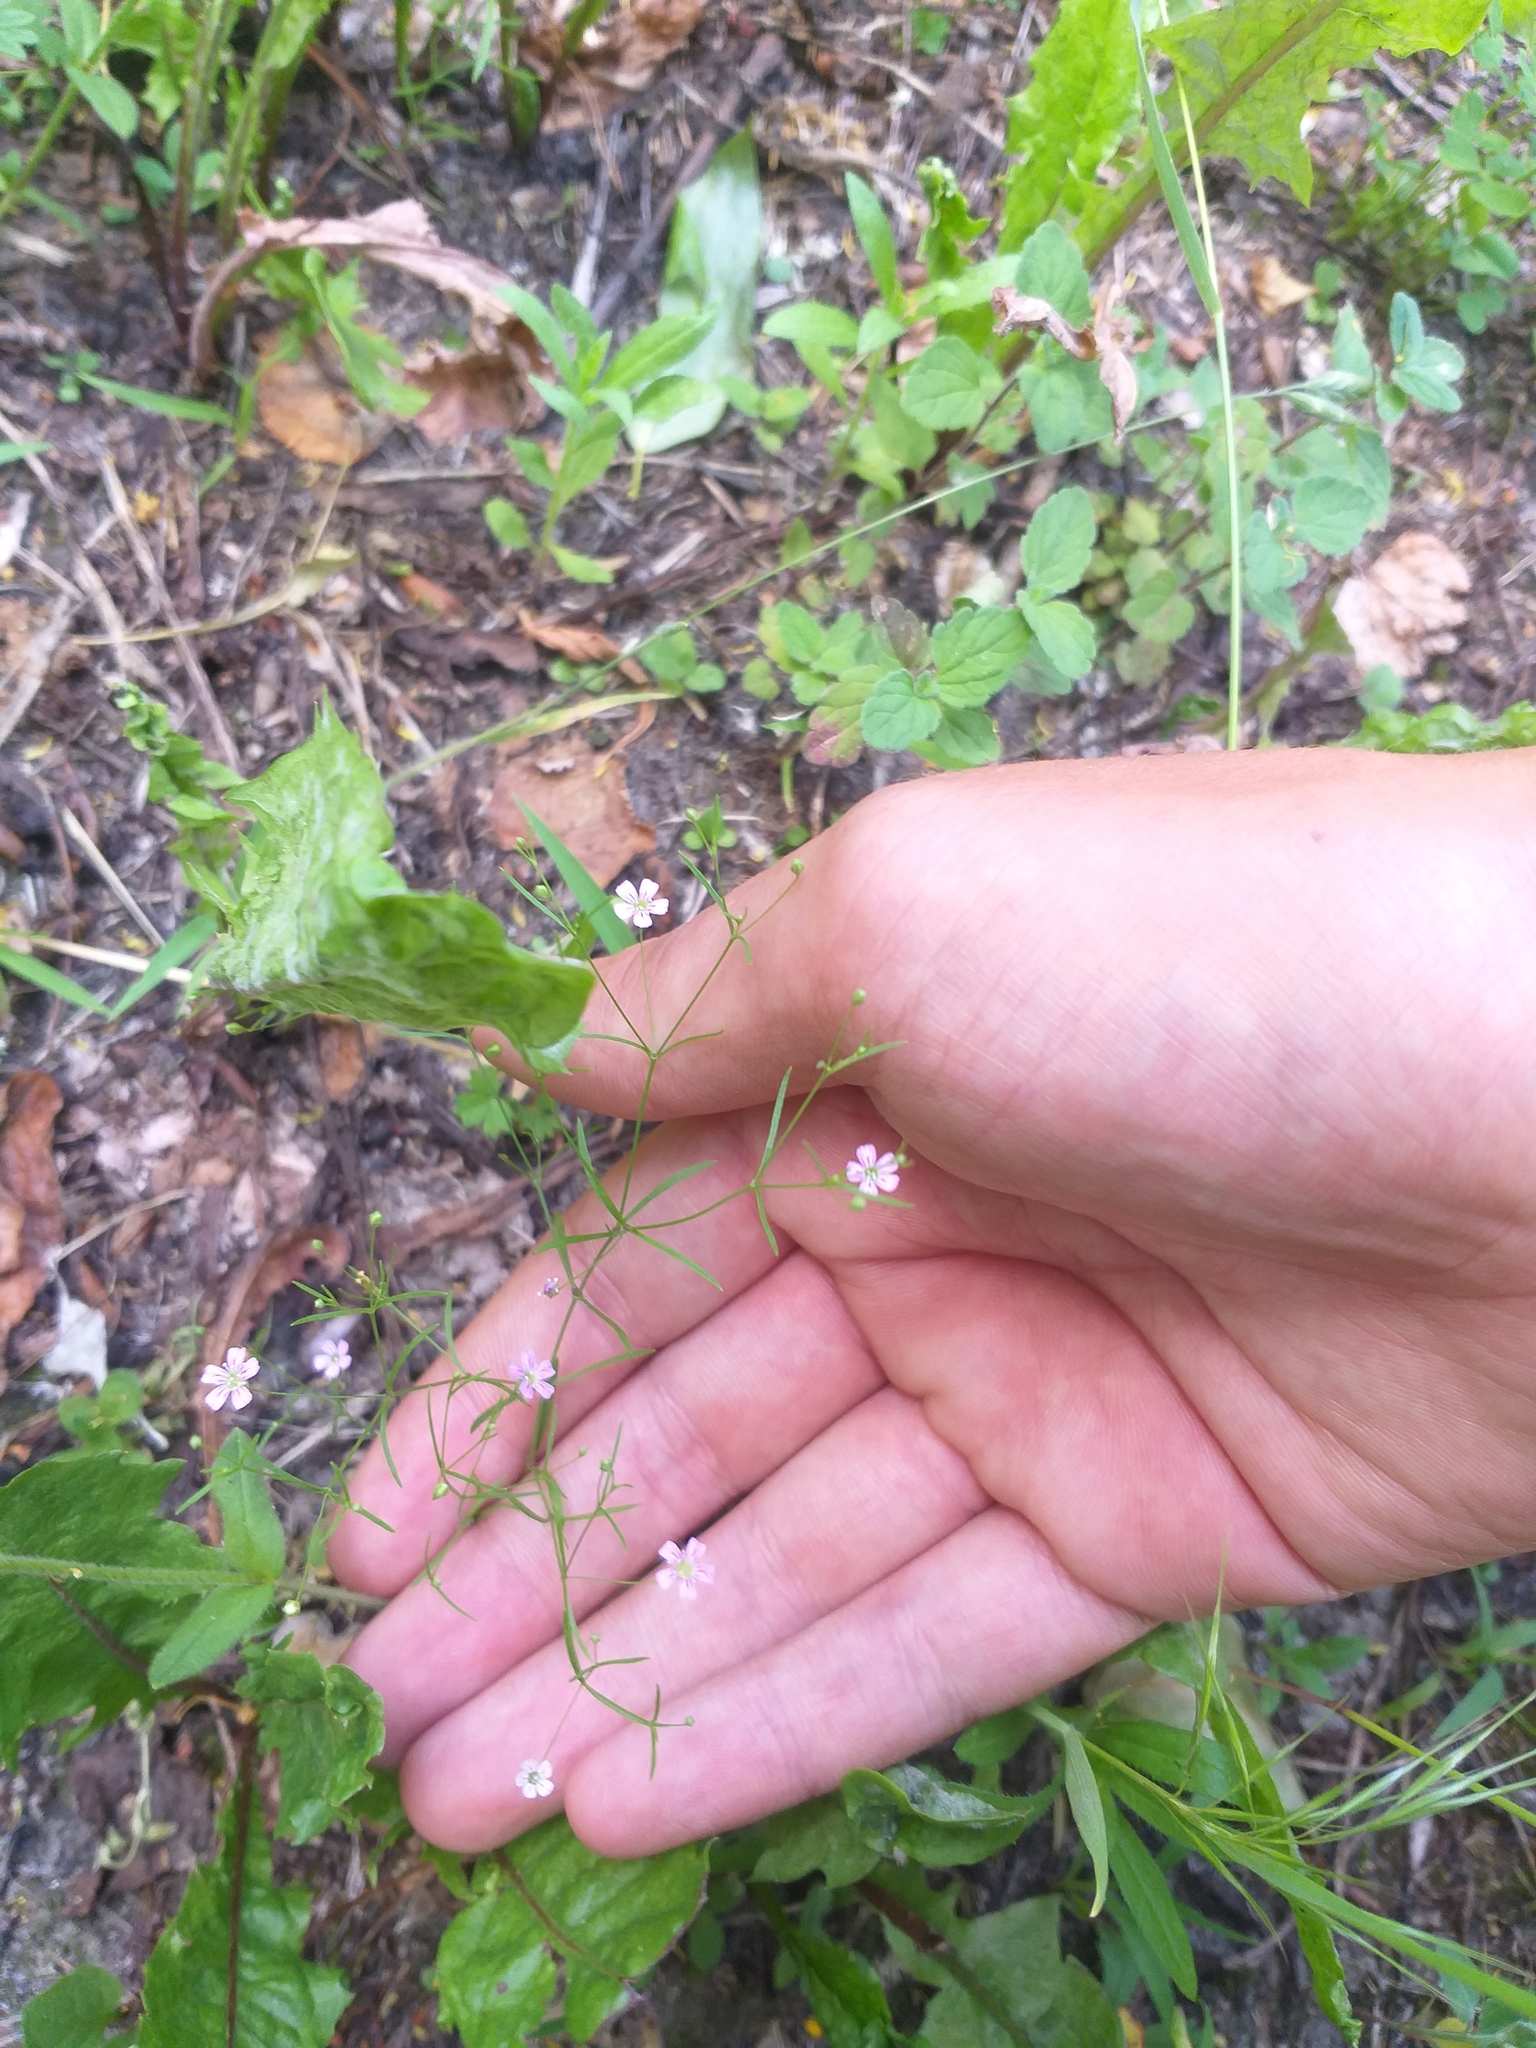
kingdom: Plantae
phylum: Tracheophyta
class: Magnoliopsida
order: Caryophyllales
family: Caryophyllaceae
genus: Psammophiliella
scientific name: Psammophiliella muralis
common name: Cushion baby's-breath
